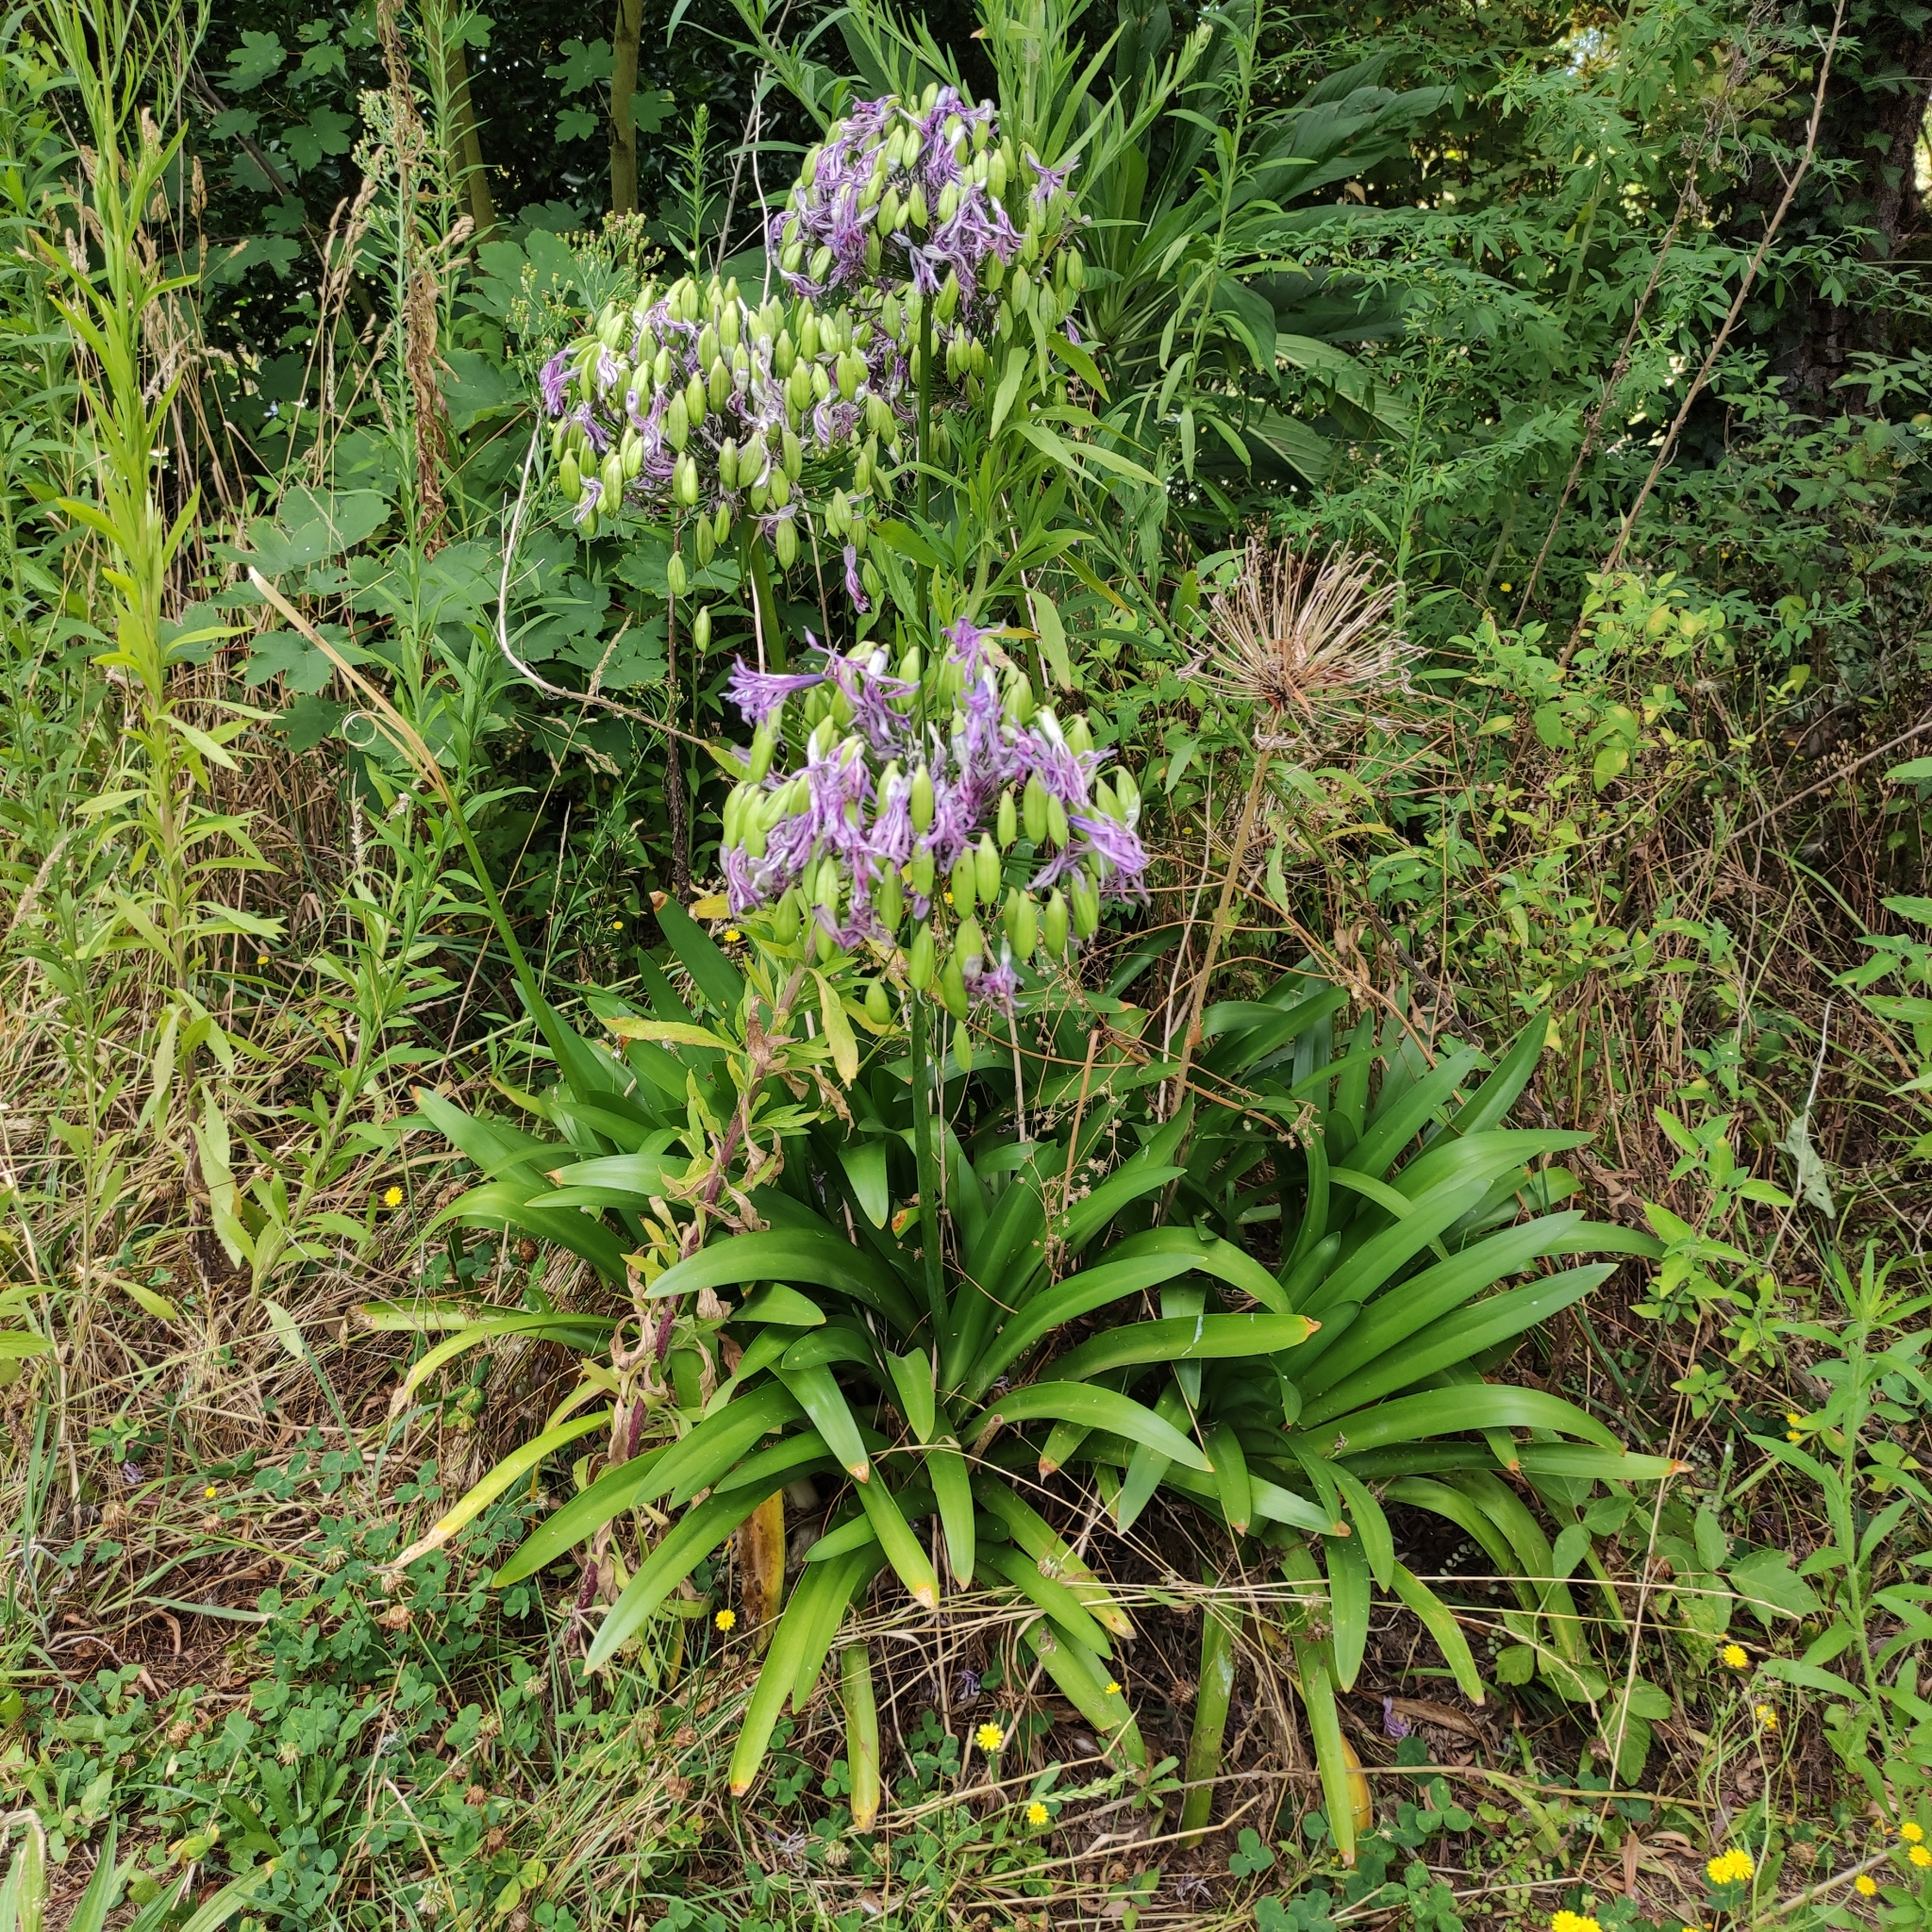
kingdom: Plantae
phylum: Tracheophyta
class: Liliopsida
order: Asparagales
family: Amaryllidaceae
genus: Agapanthus
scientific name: Agapanthus praecox
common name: African-lily
